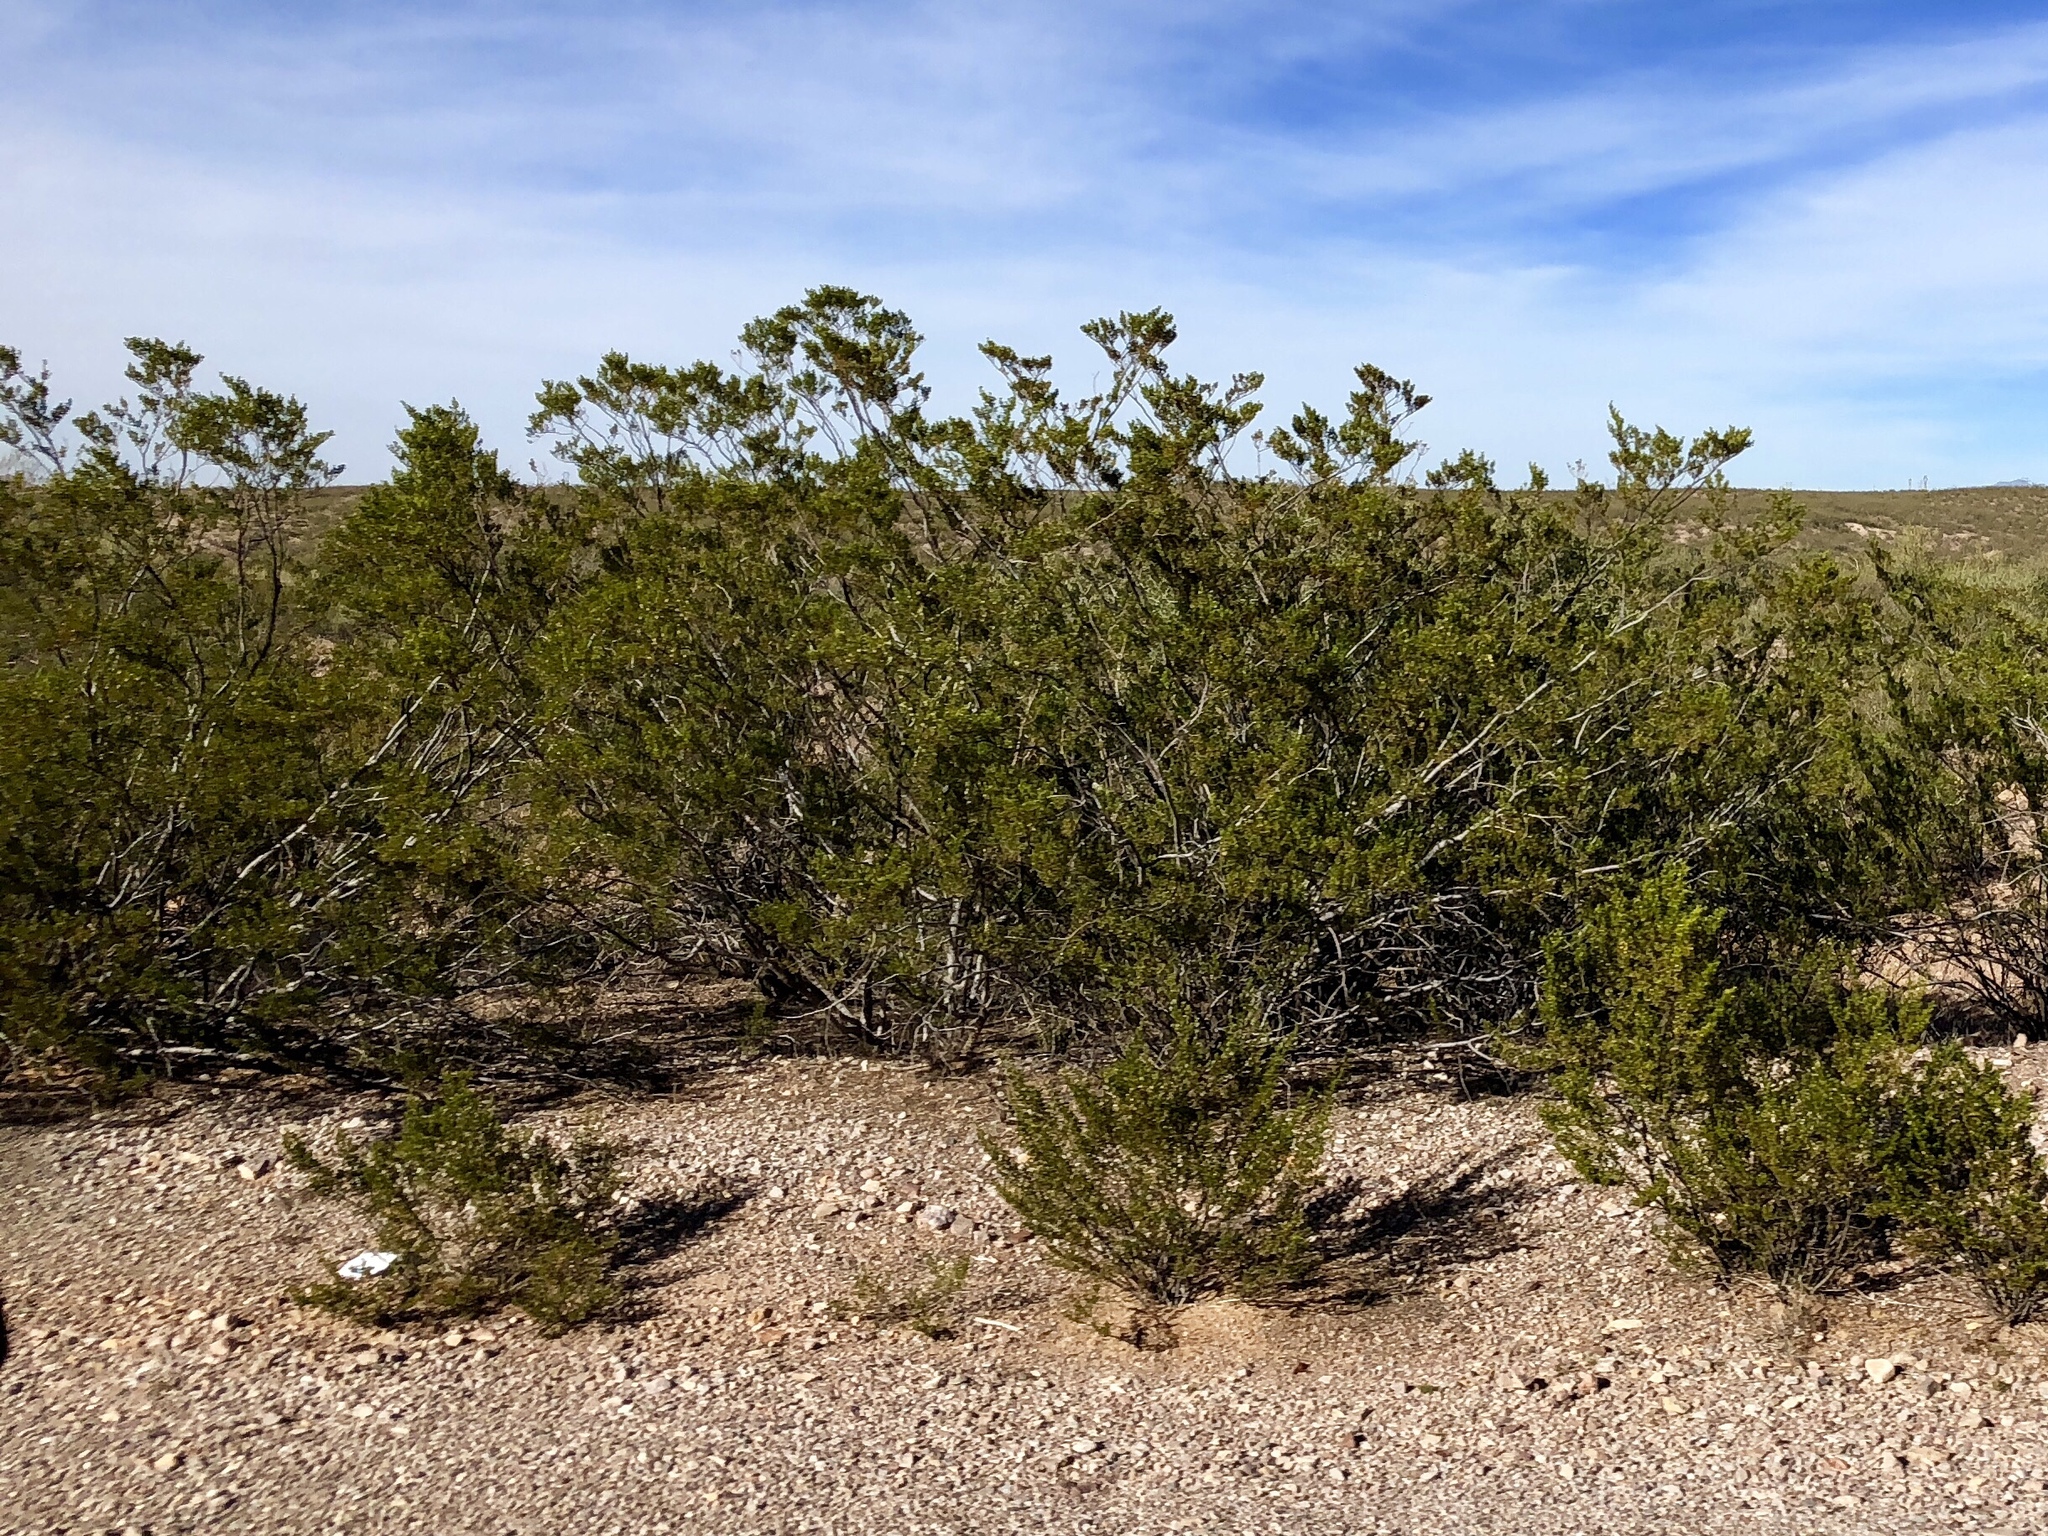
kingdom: Plantae
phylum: Tracheophyta
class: Magnoliopsida
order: Zygophyllales
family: Zygophyllaceae
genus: Larrea
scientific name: Larrea tridentata
